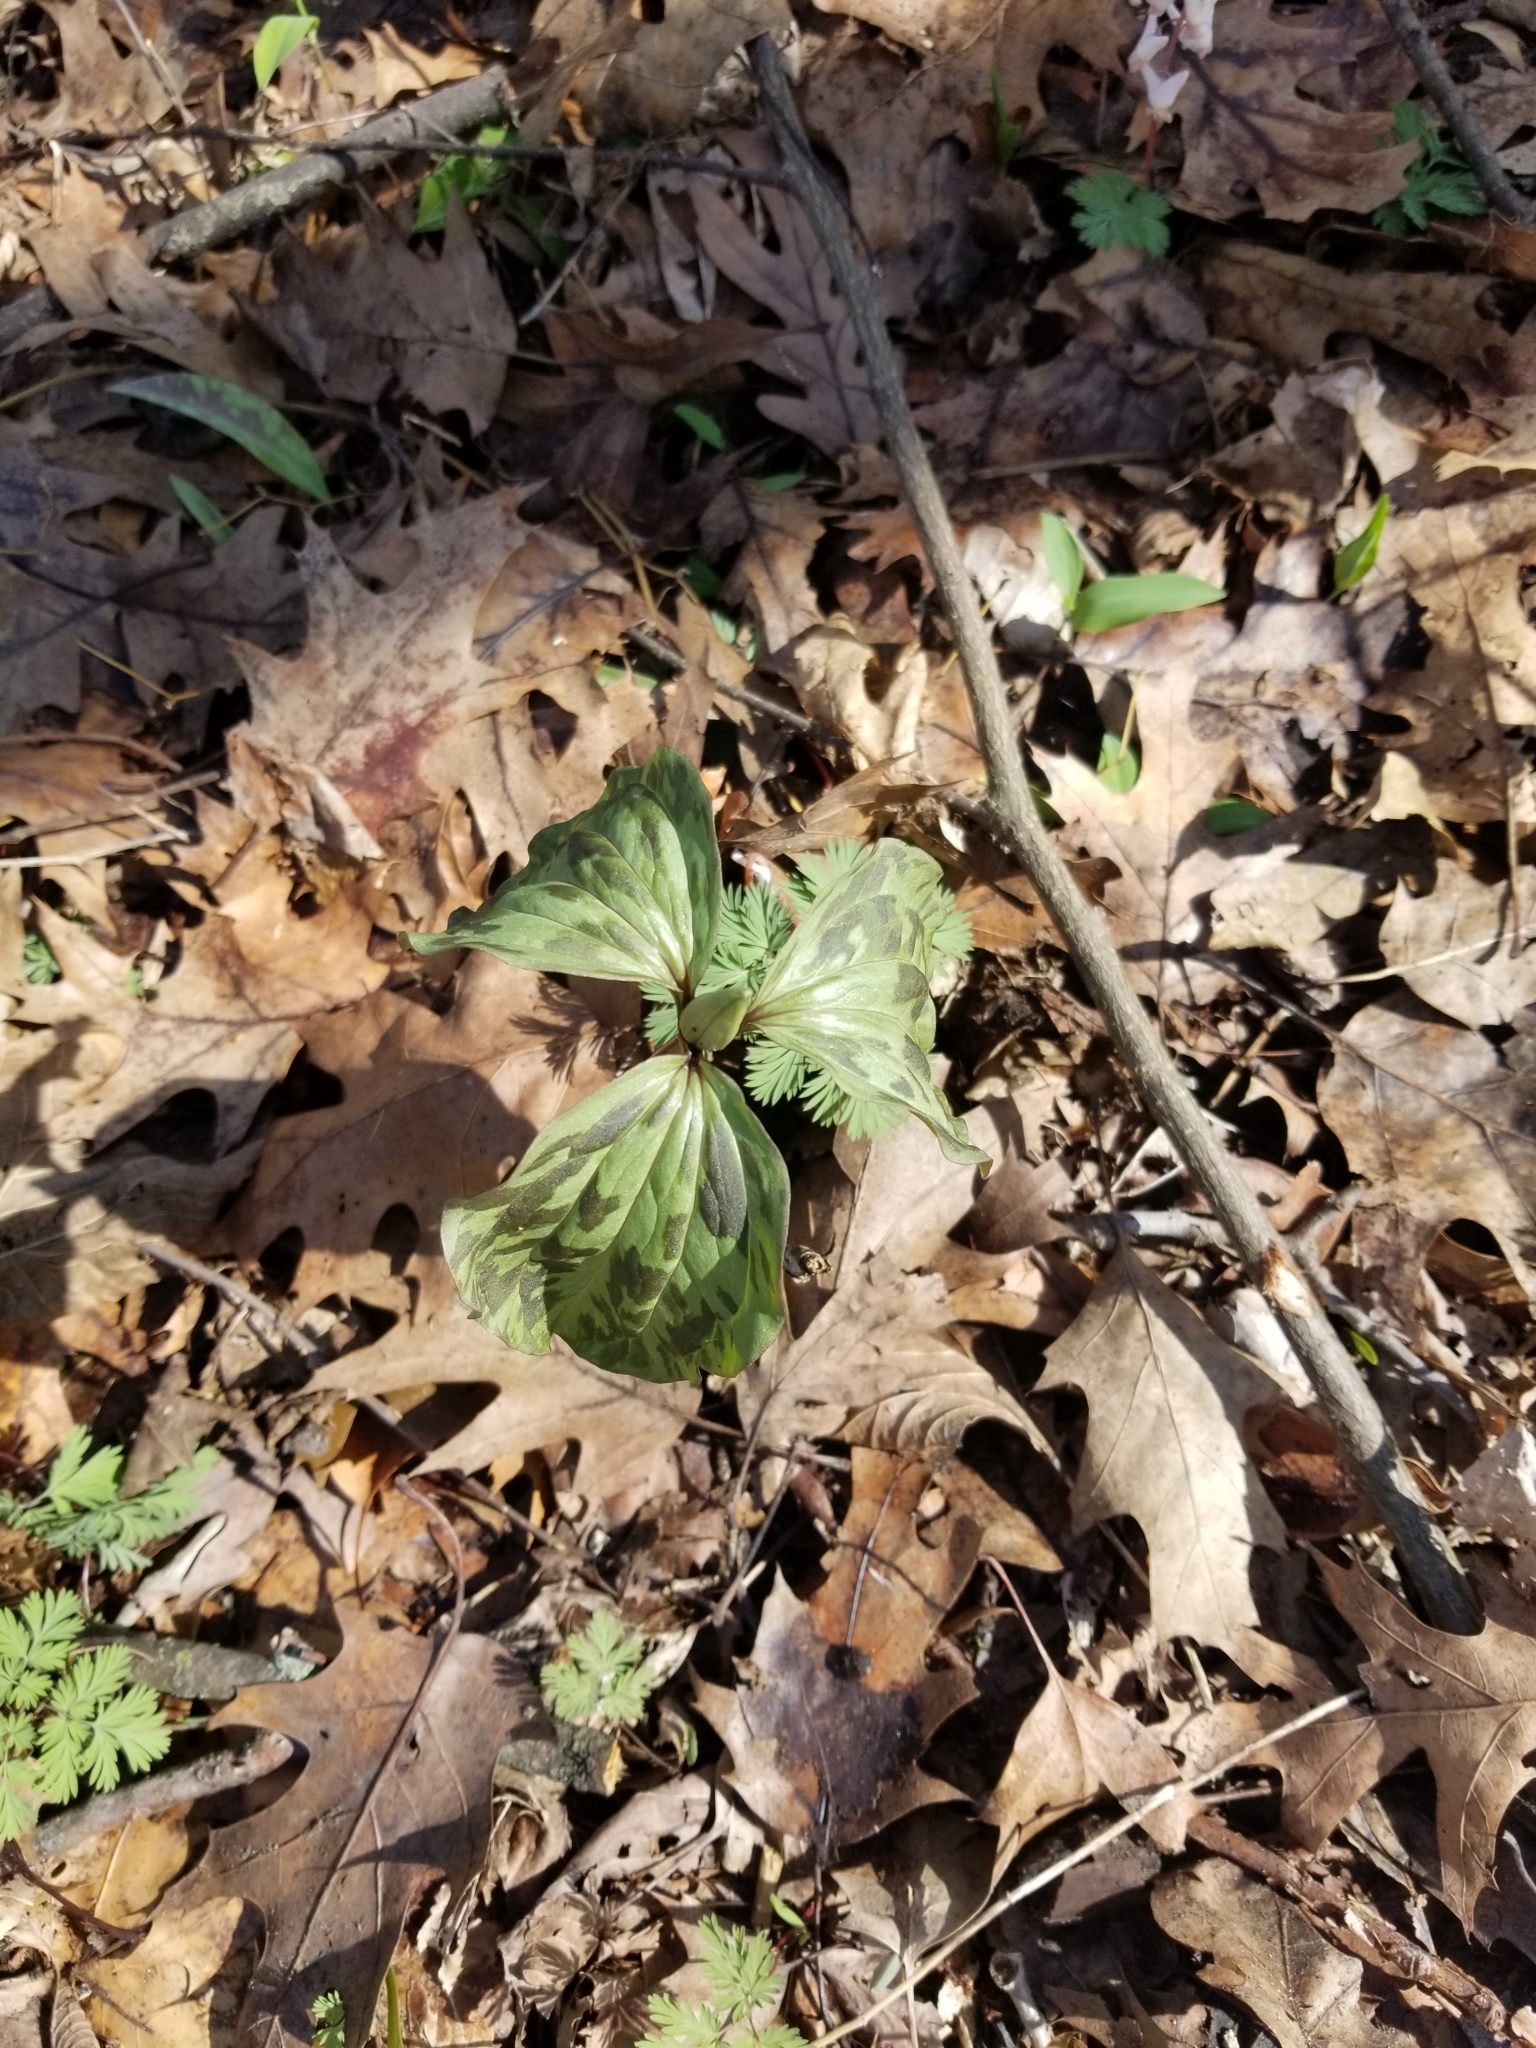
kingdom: Plantae
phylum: Tracheophyta
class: Liliopsida
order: Liliales
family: Melanthiaceae
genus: Trillium
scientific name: Trillium recurvatum
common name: Bloody butcher
